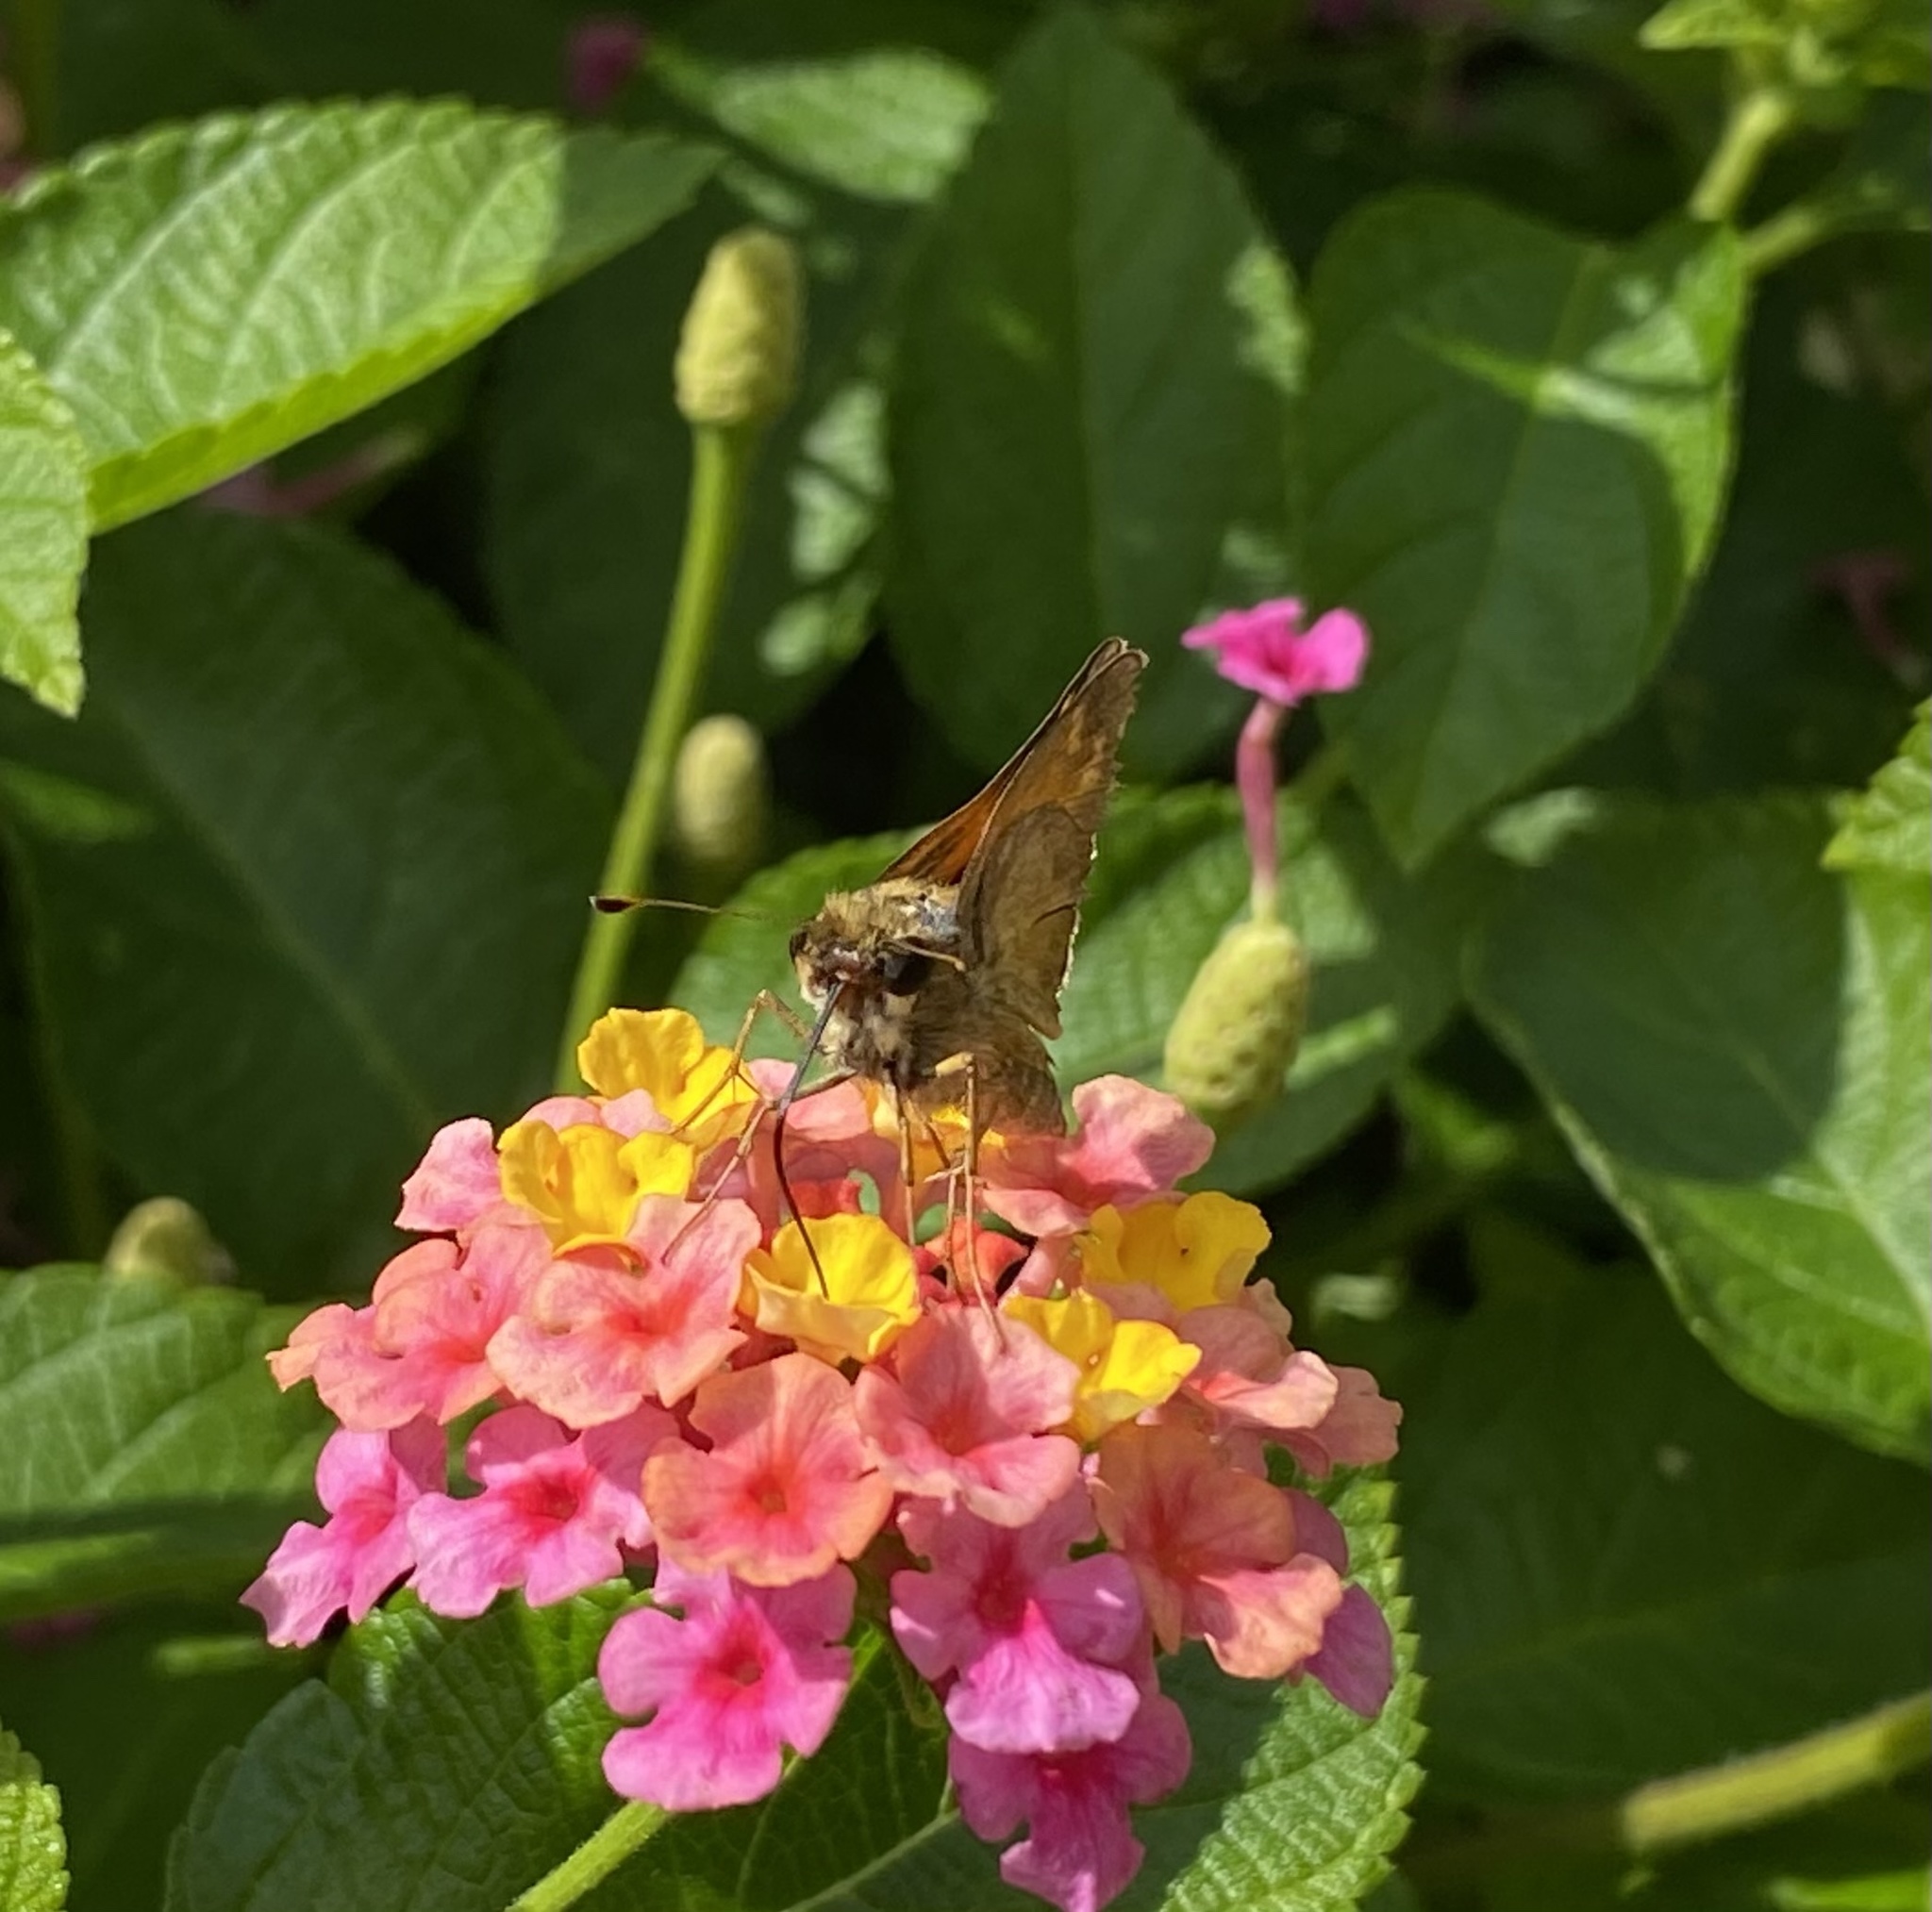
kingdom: Animalia
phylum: Arthropoda
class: Insecta
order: Lepidoptera
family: Hesperiidae
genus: Atalopedes
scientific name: Atalopedes
